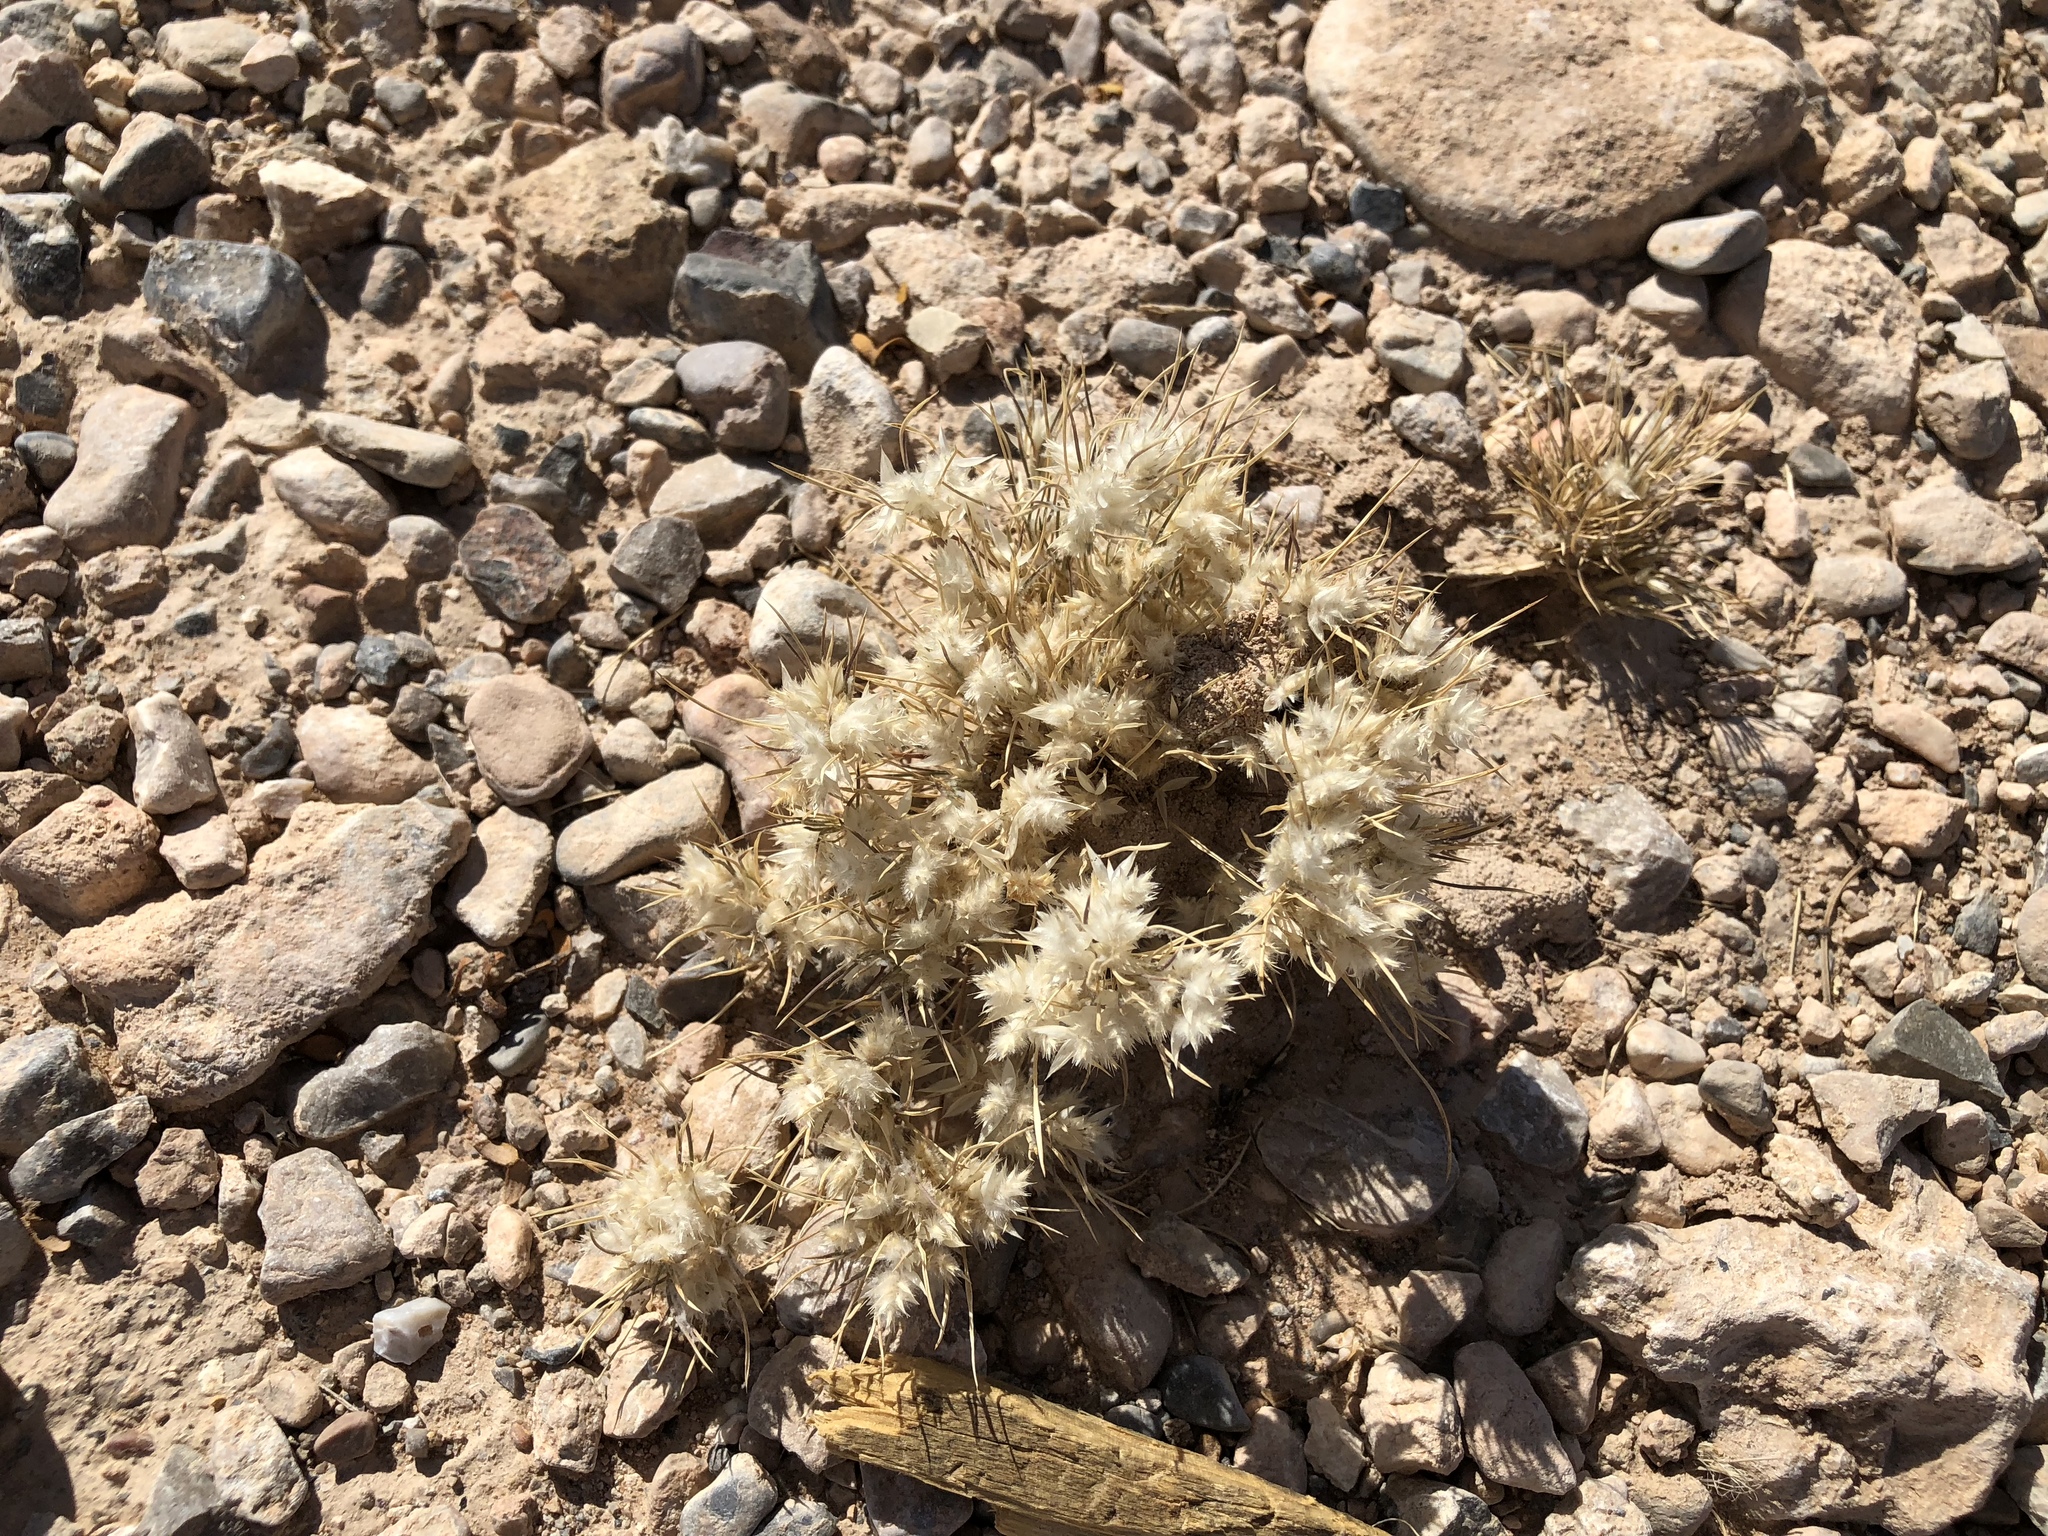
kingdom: Plantae
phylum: Tracheophyta
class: Liliopsida
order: Poales
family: Poaceae
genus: Dasyochloa
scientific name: Dasyochloa pulchella
